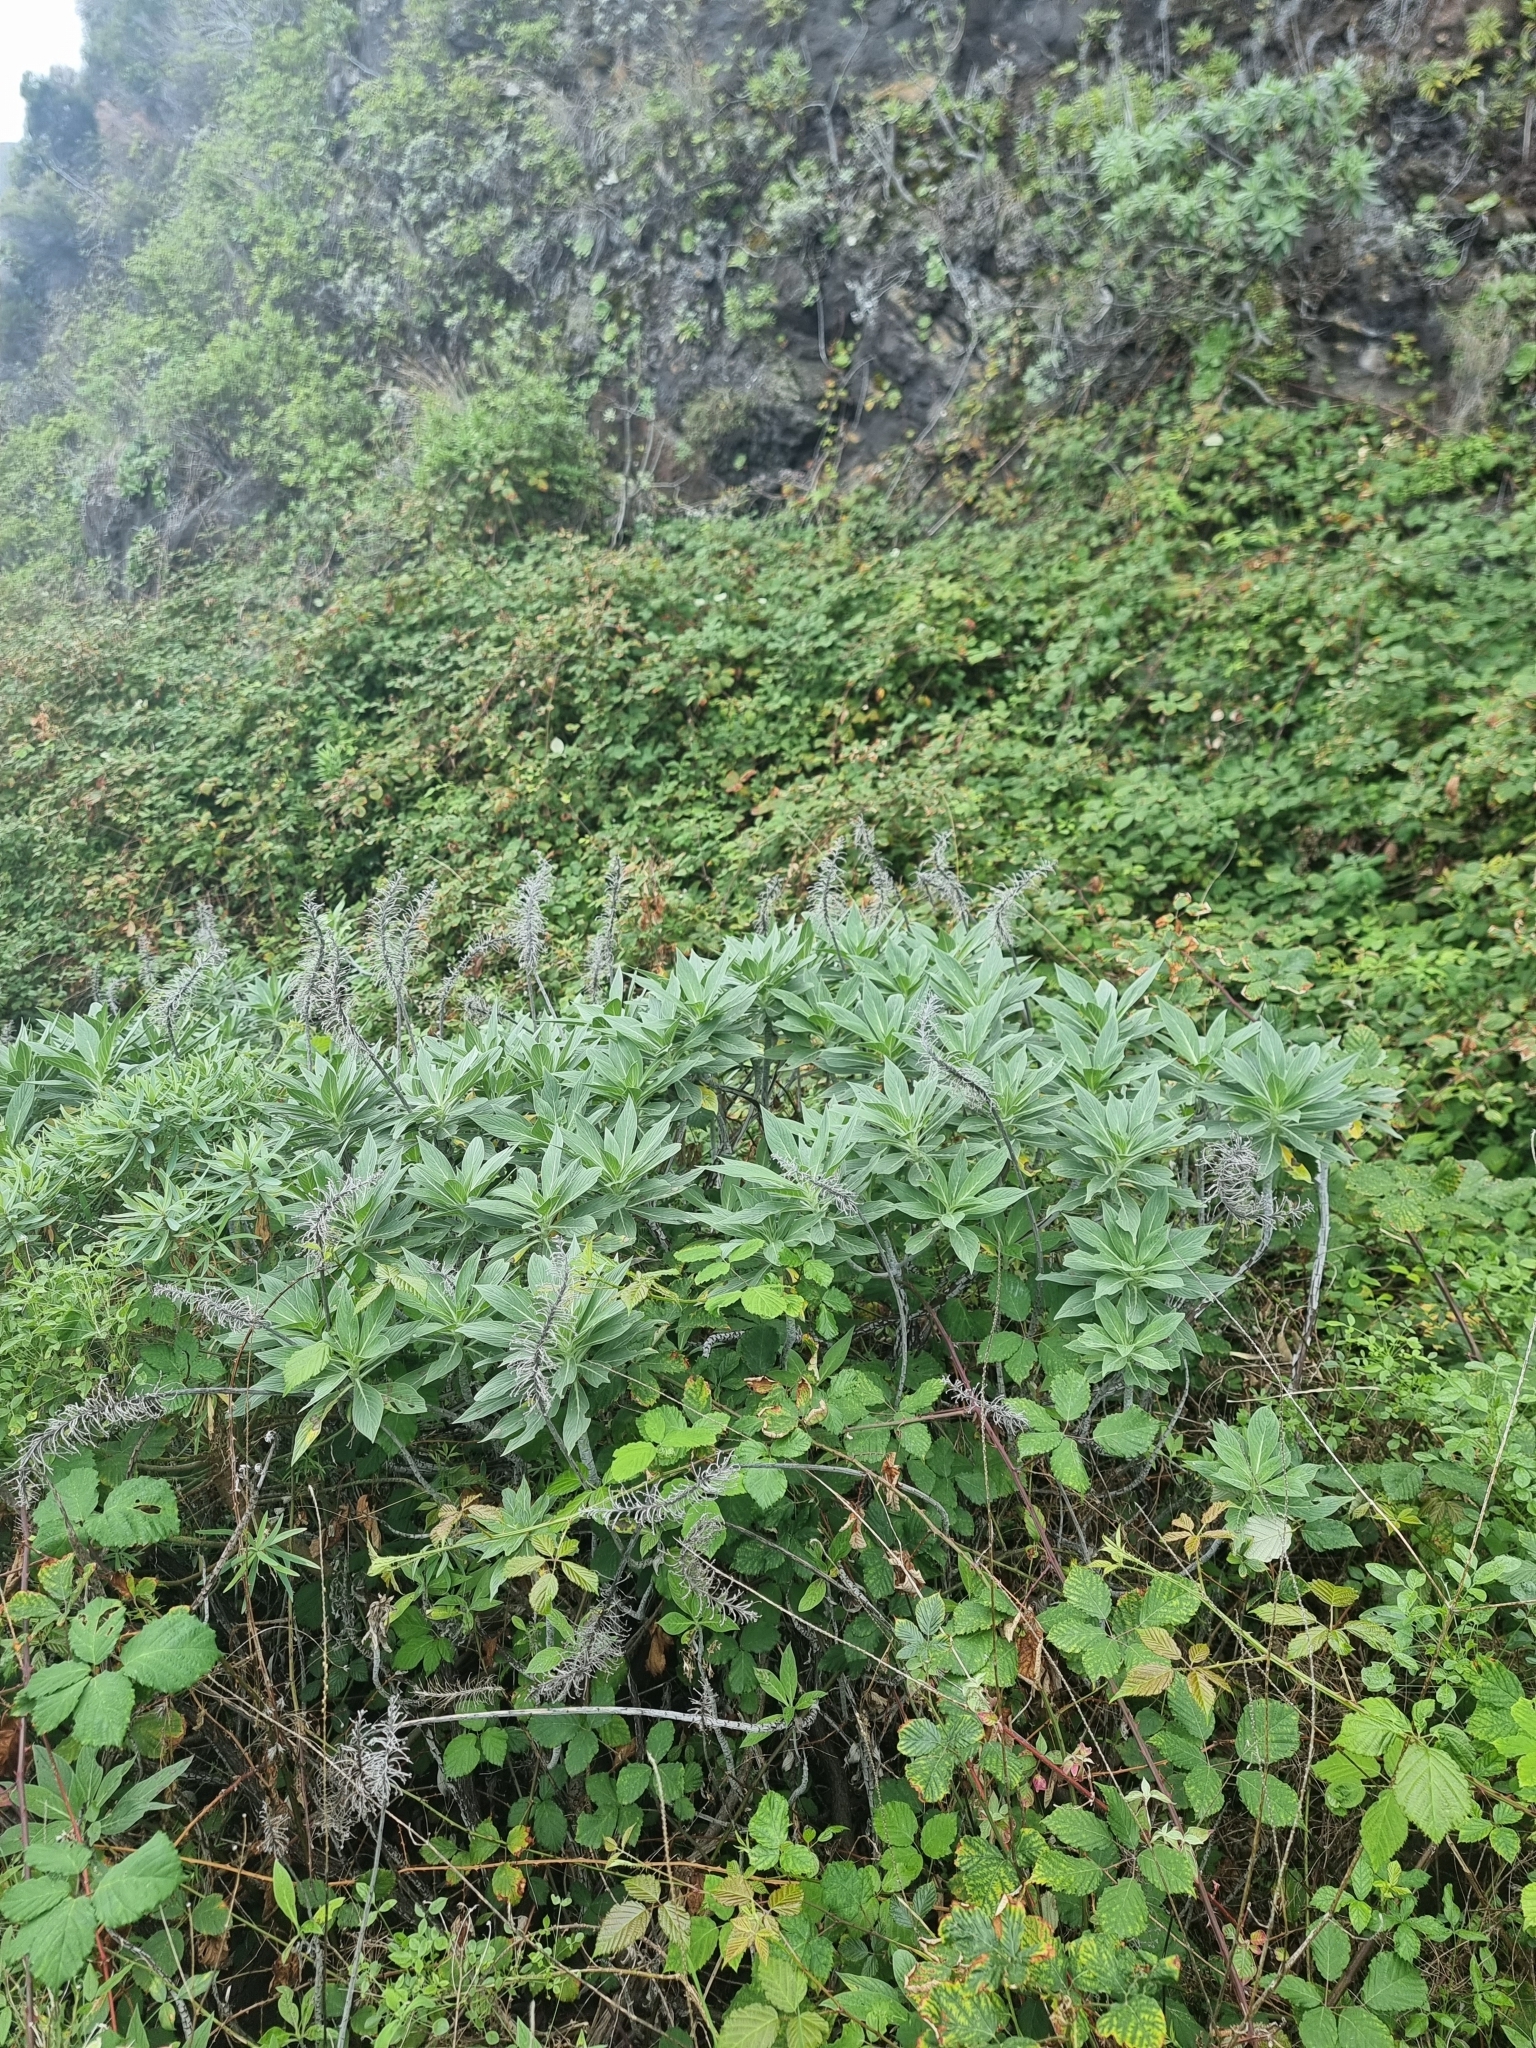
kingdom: Plantae
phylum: Tracheophyta
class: Magnoliopsida
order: Boraginales
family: Boraginaceae
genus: Echium
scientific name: Echium nervosum
